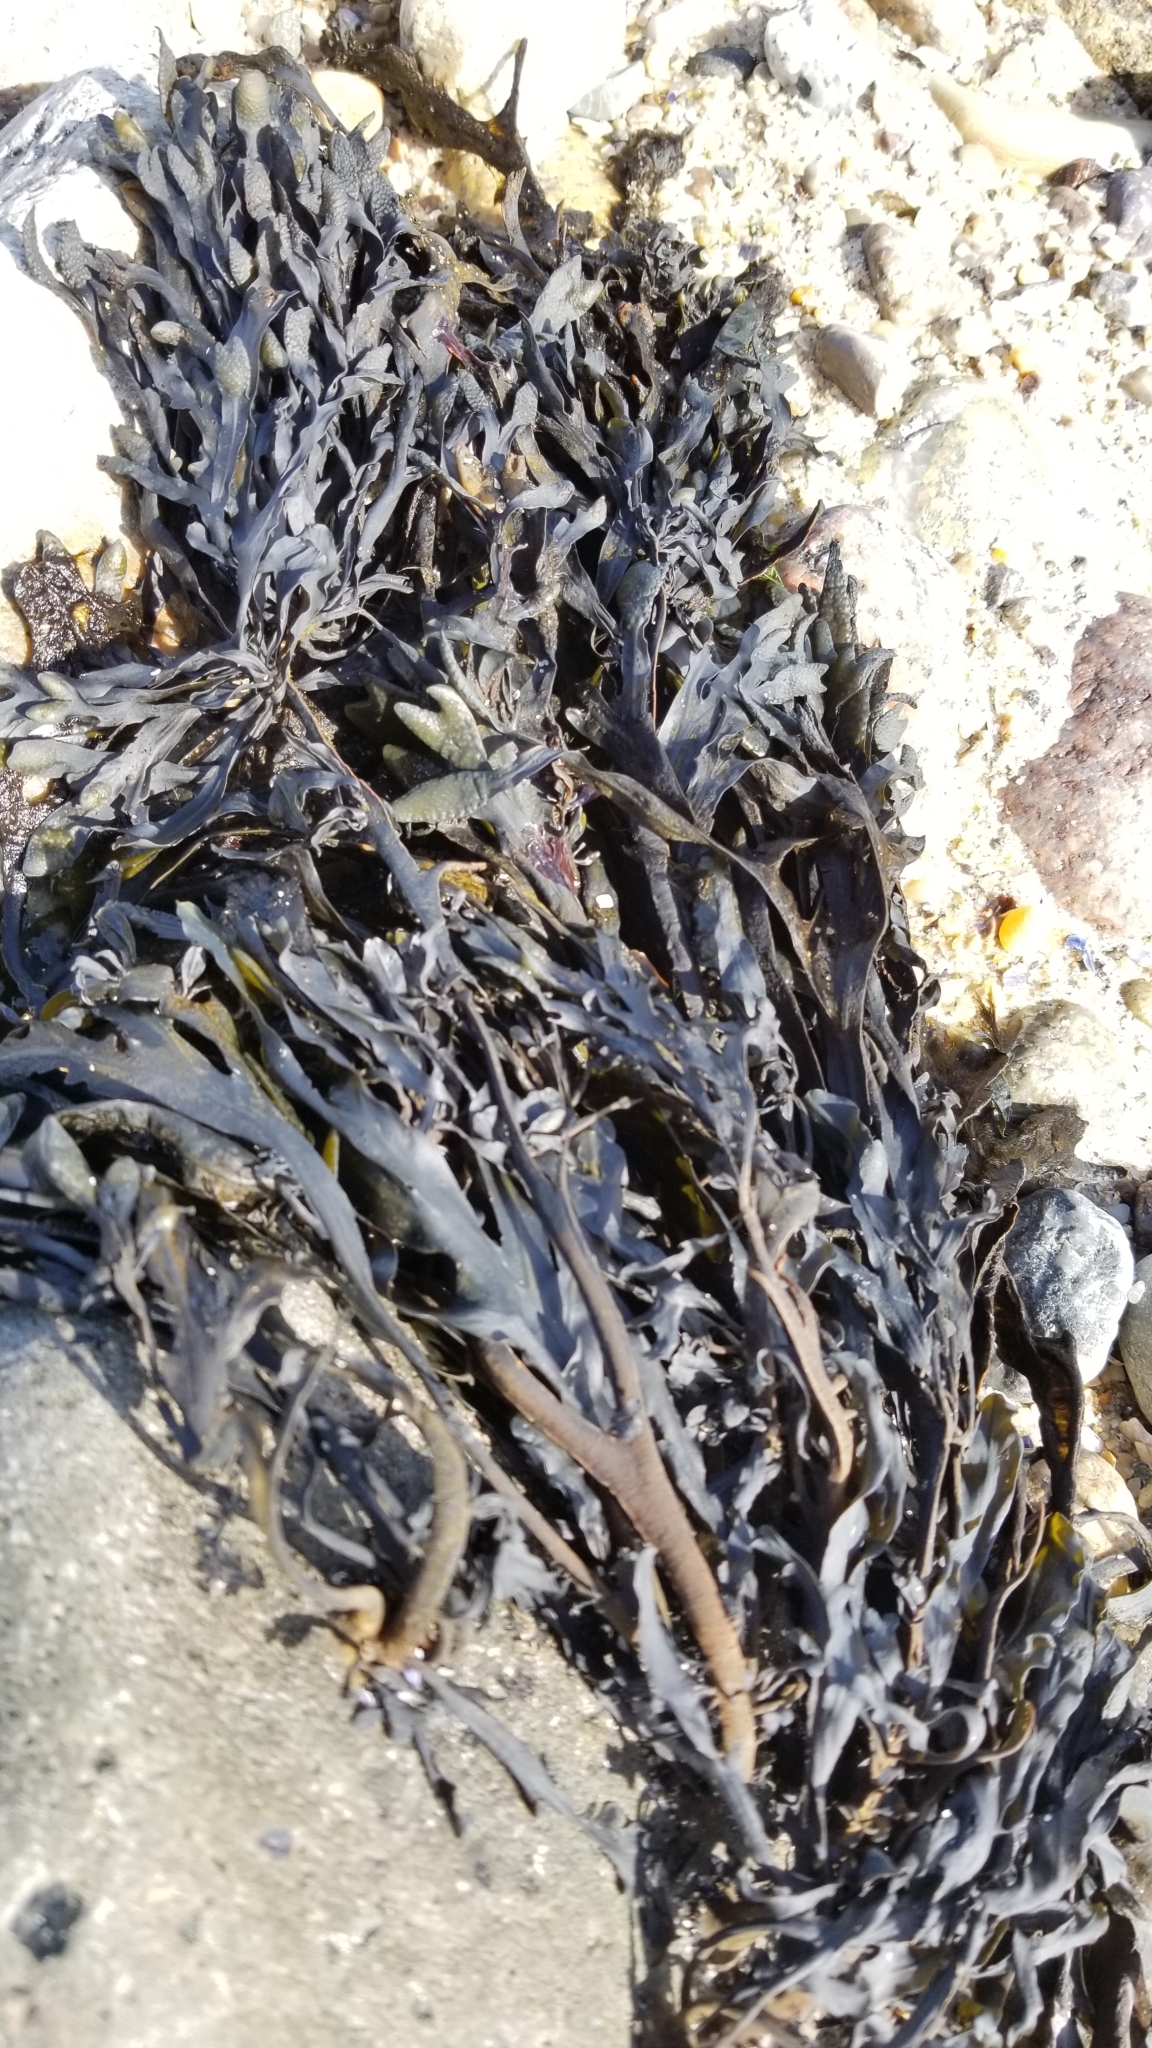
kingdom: Chromista
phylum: Ochrophyta
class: Phaeophyceae
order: Fucales
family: Fucaceae
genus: Fucus
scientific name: Fucus distichus
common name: Rockweed
